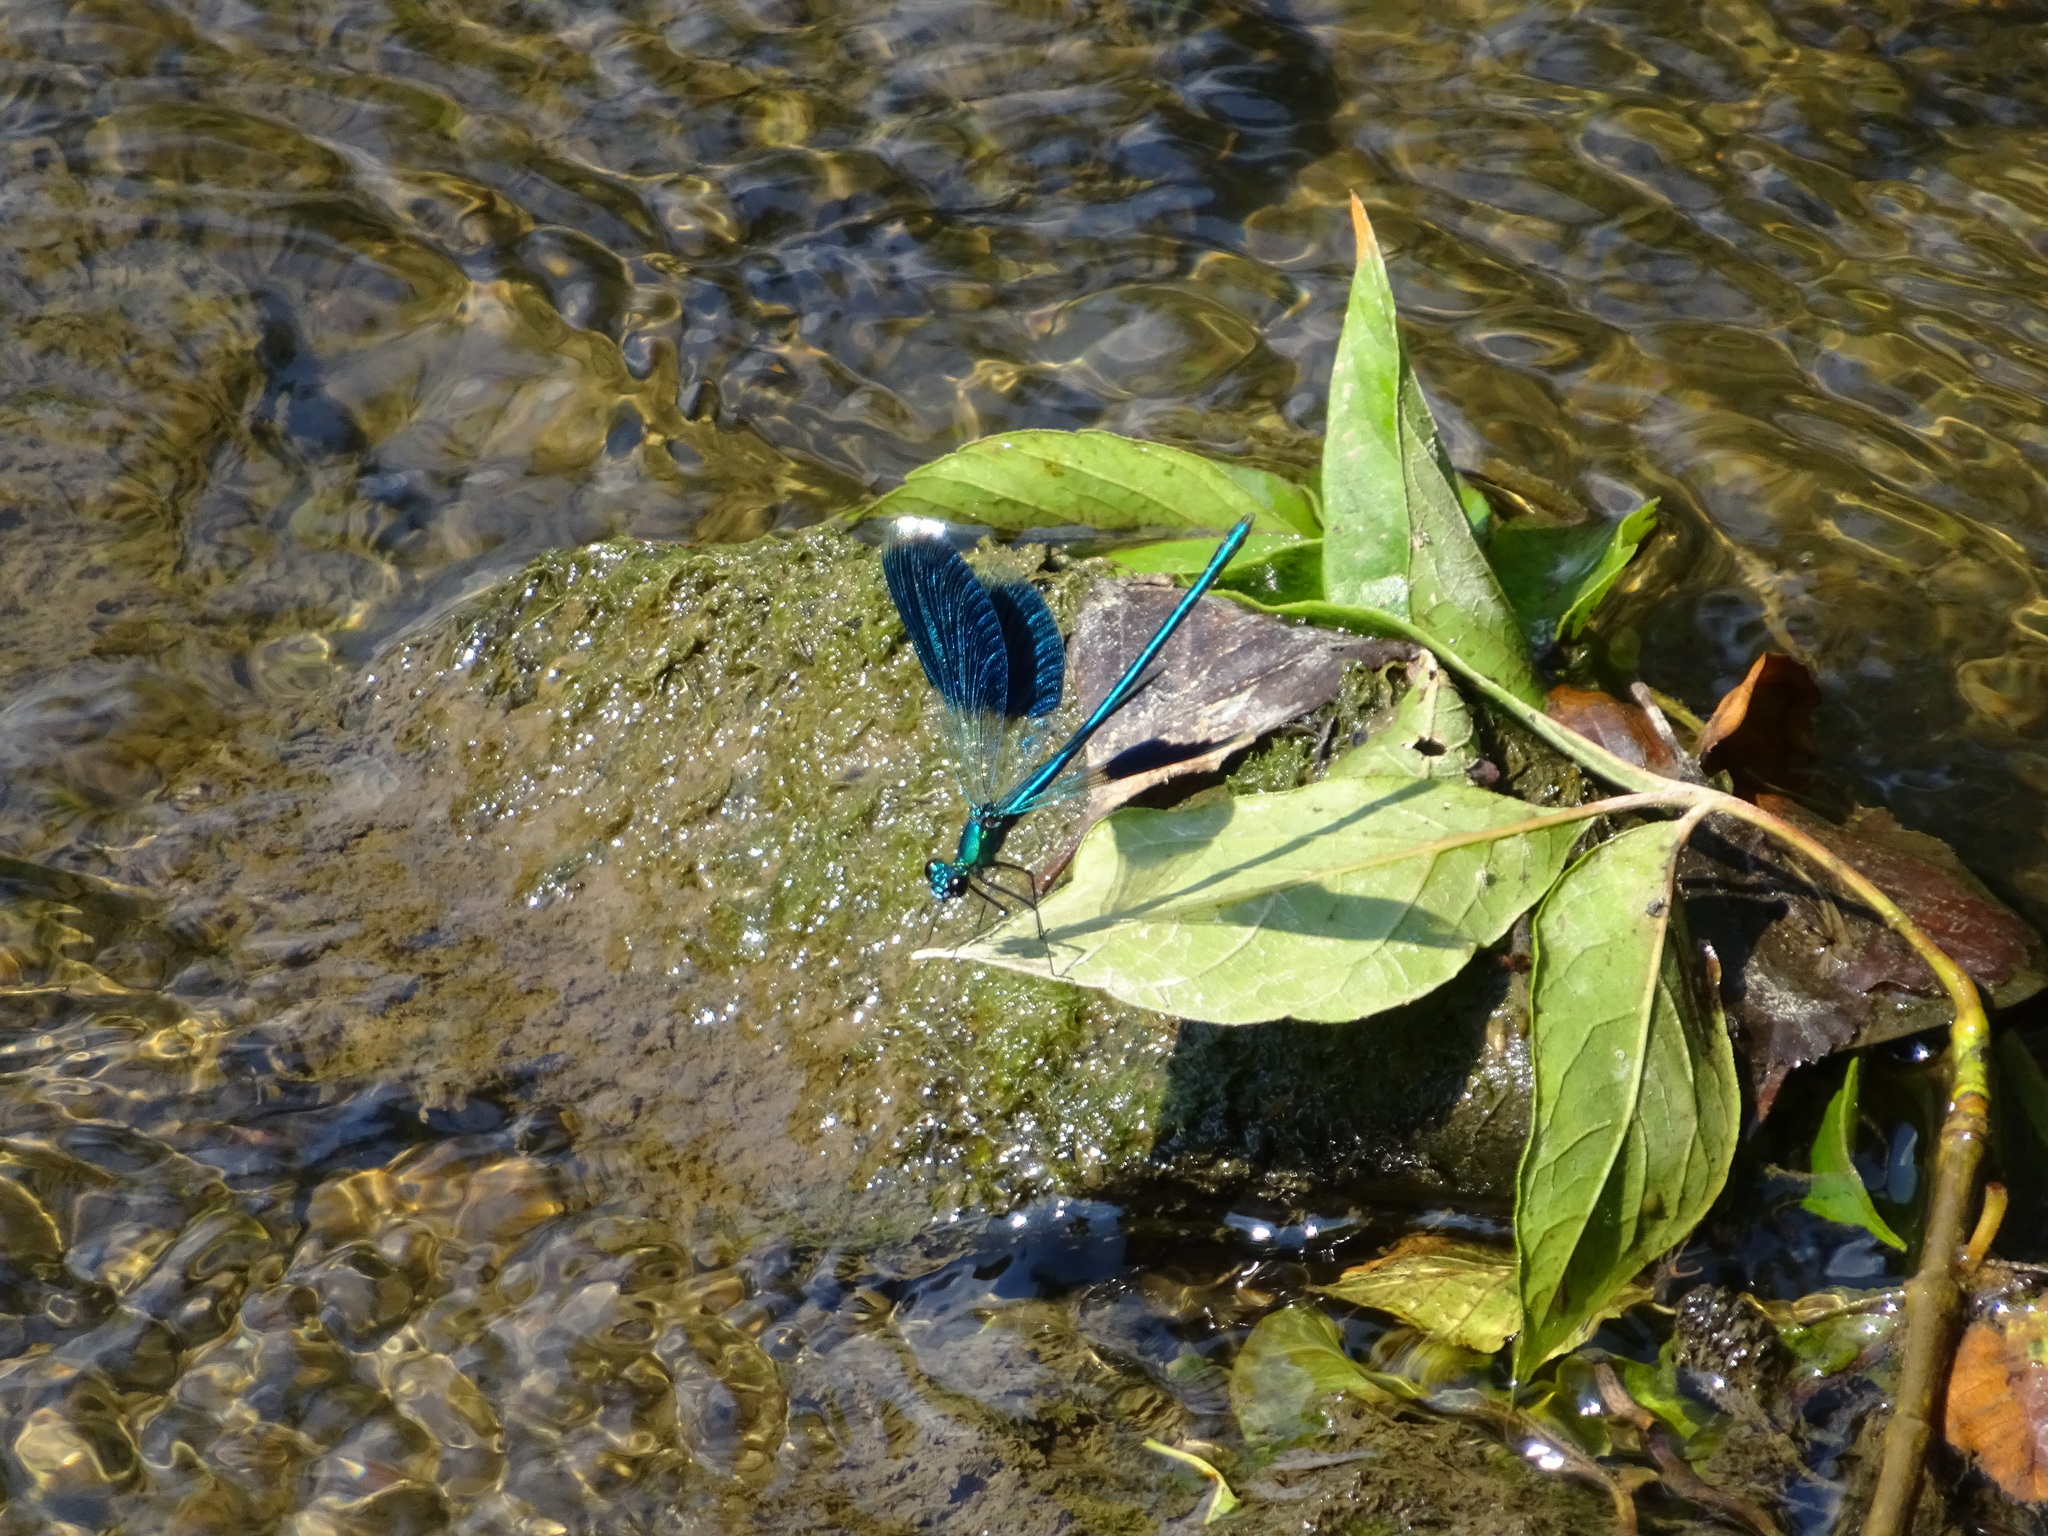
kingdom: Animalia
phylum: Arthropoda
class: Insecta
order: Odonata
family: Calopterygidae
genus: Calopteryx
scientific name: Calopteryx splendens
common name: Banded demoiselle
